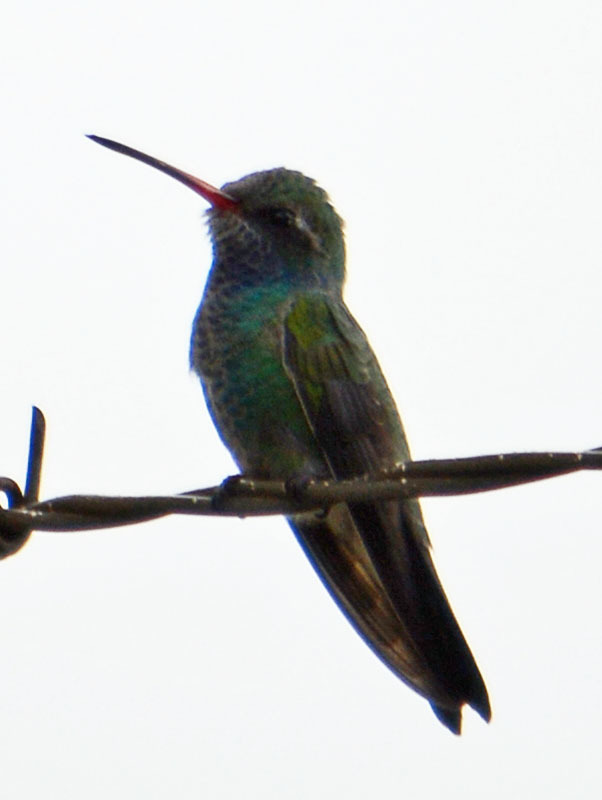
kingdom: Animalia
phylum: Chordata
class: Aves
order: Apodiformes
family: Trochilidae
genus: Cynanthus
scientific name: Cynanthus latirostris
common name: Broad-billed hummingbird
